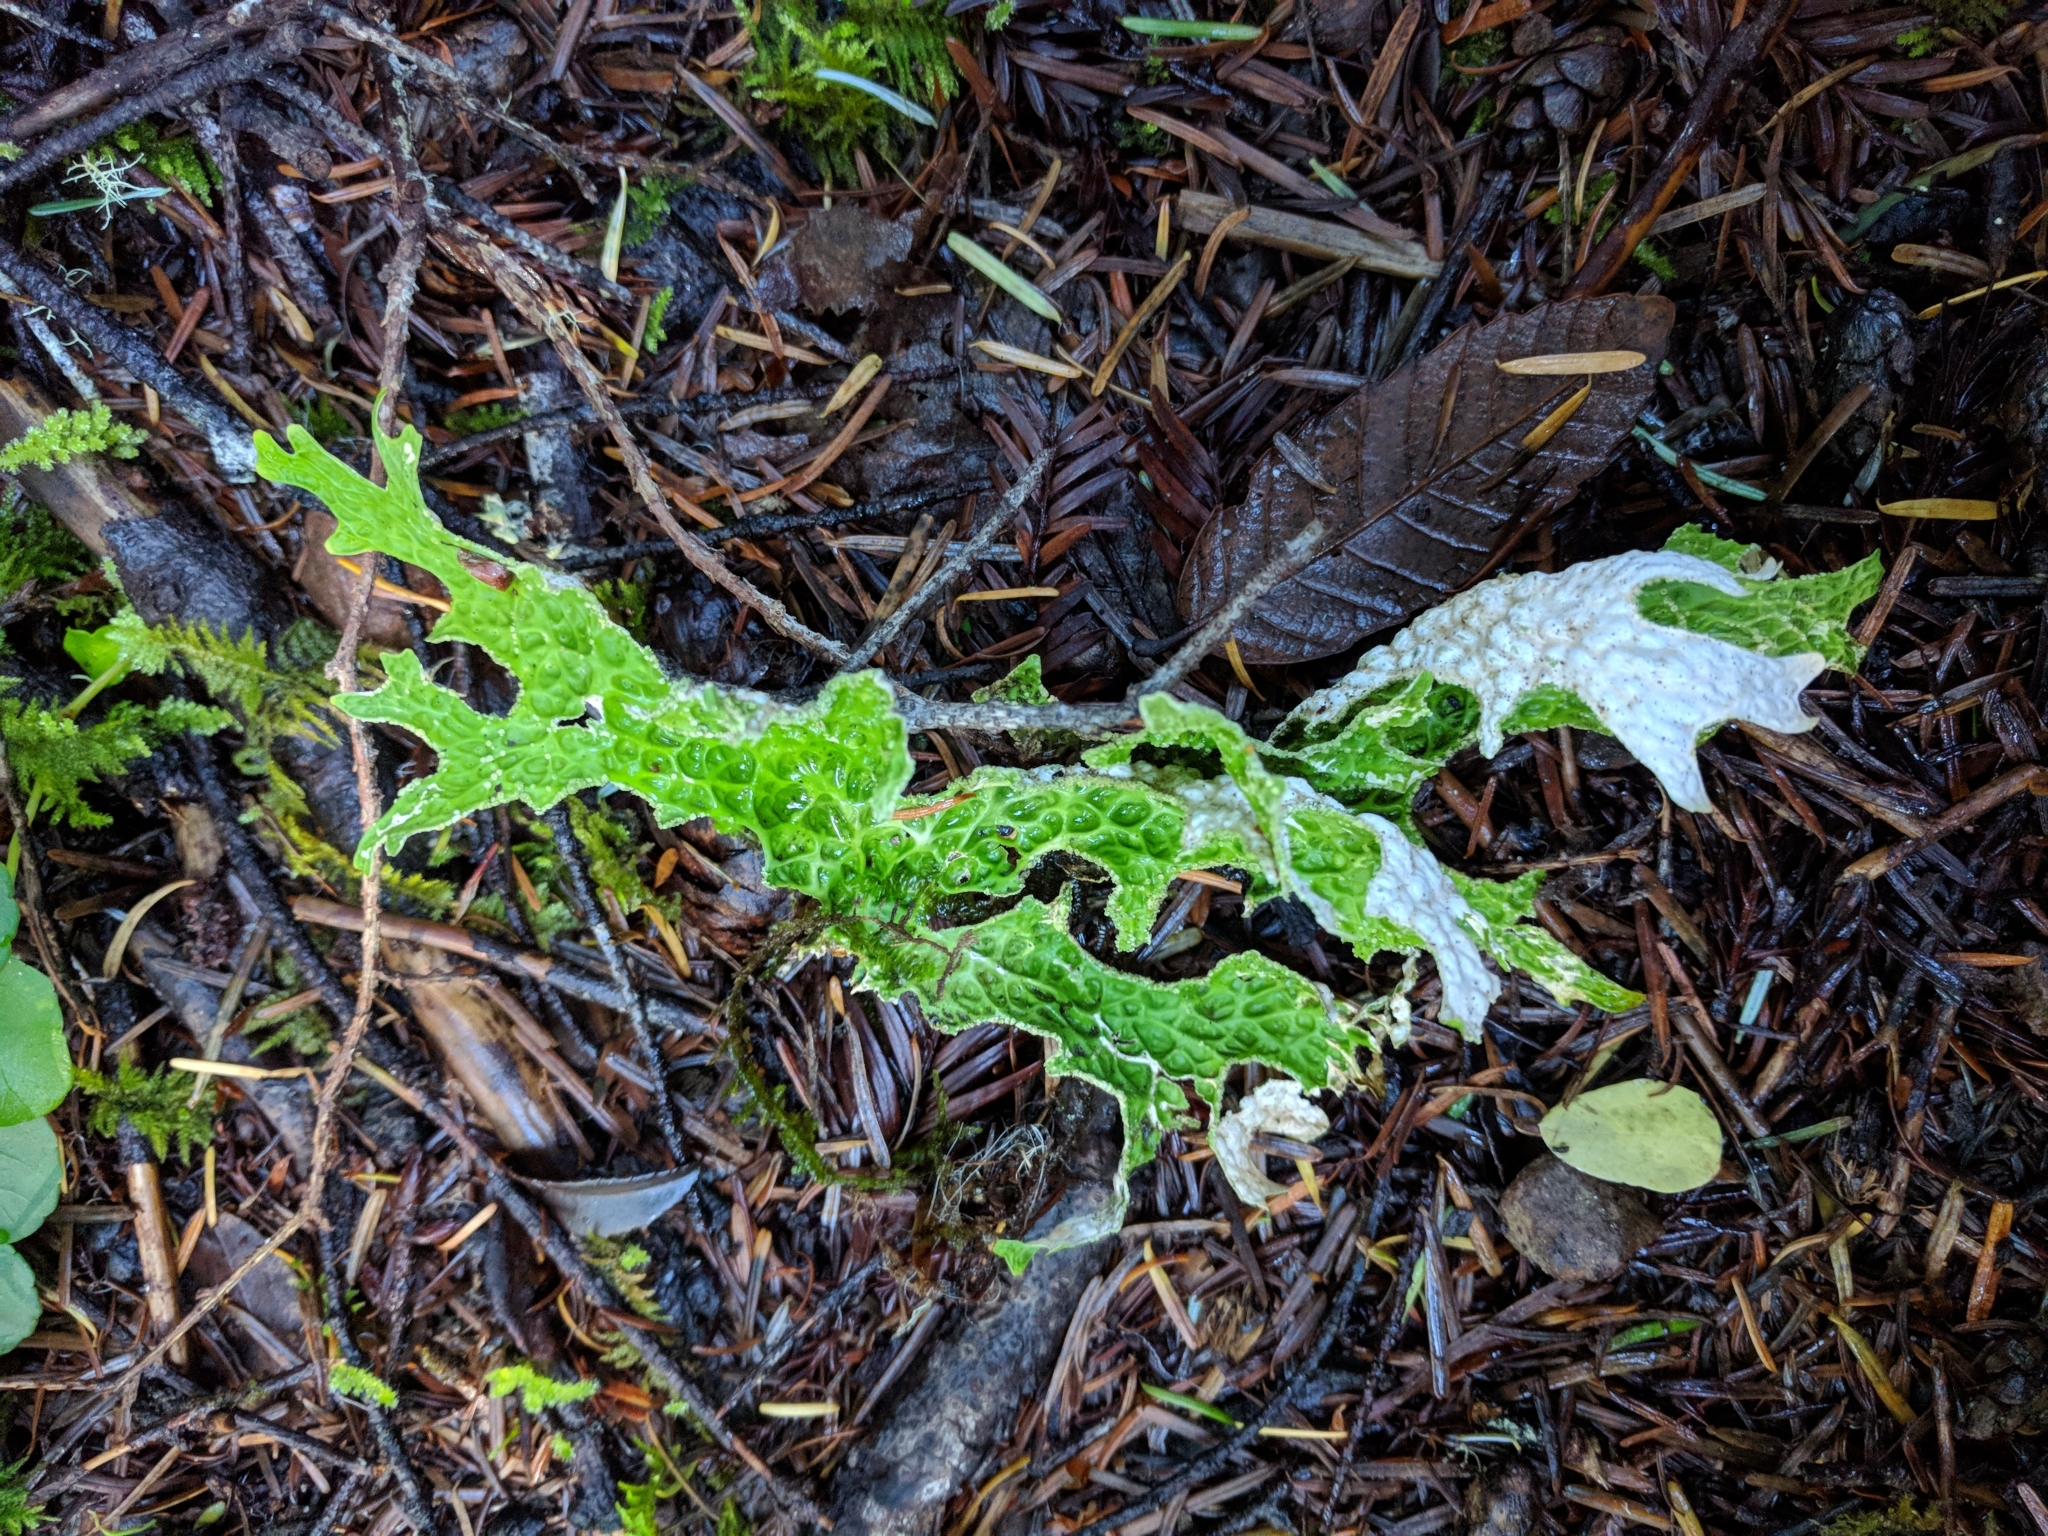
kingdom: Fungi
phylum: Ascomycota
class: Lecanoromycetes
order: Peltigerales
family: Lobariaceae
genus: Lobaria
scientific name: Lobaria pulmonaria
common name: Lungwort
